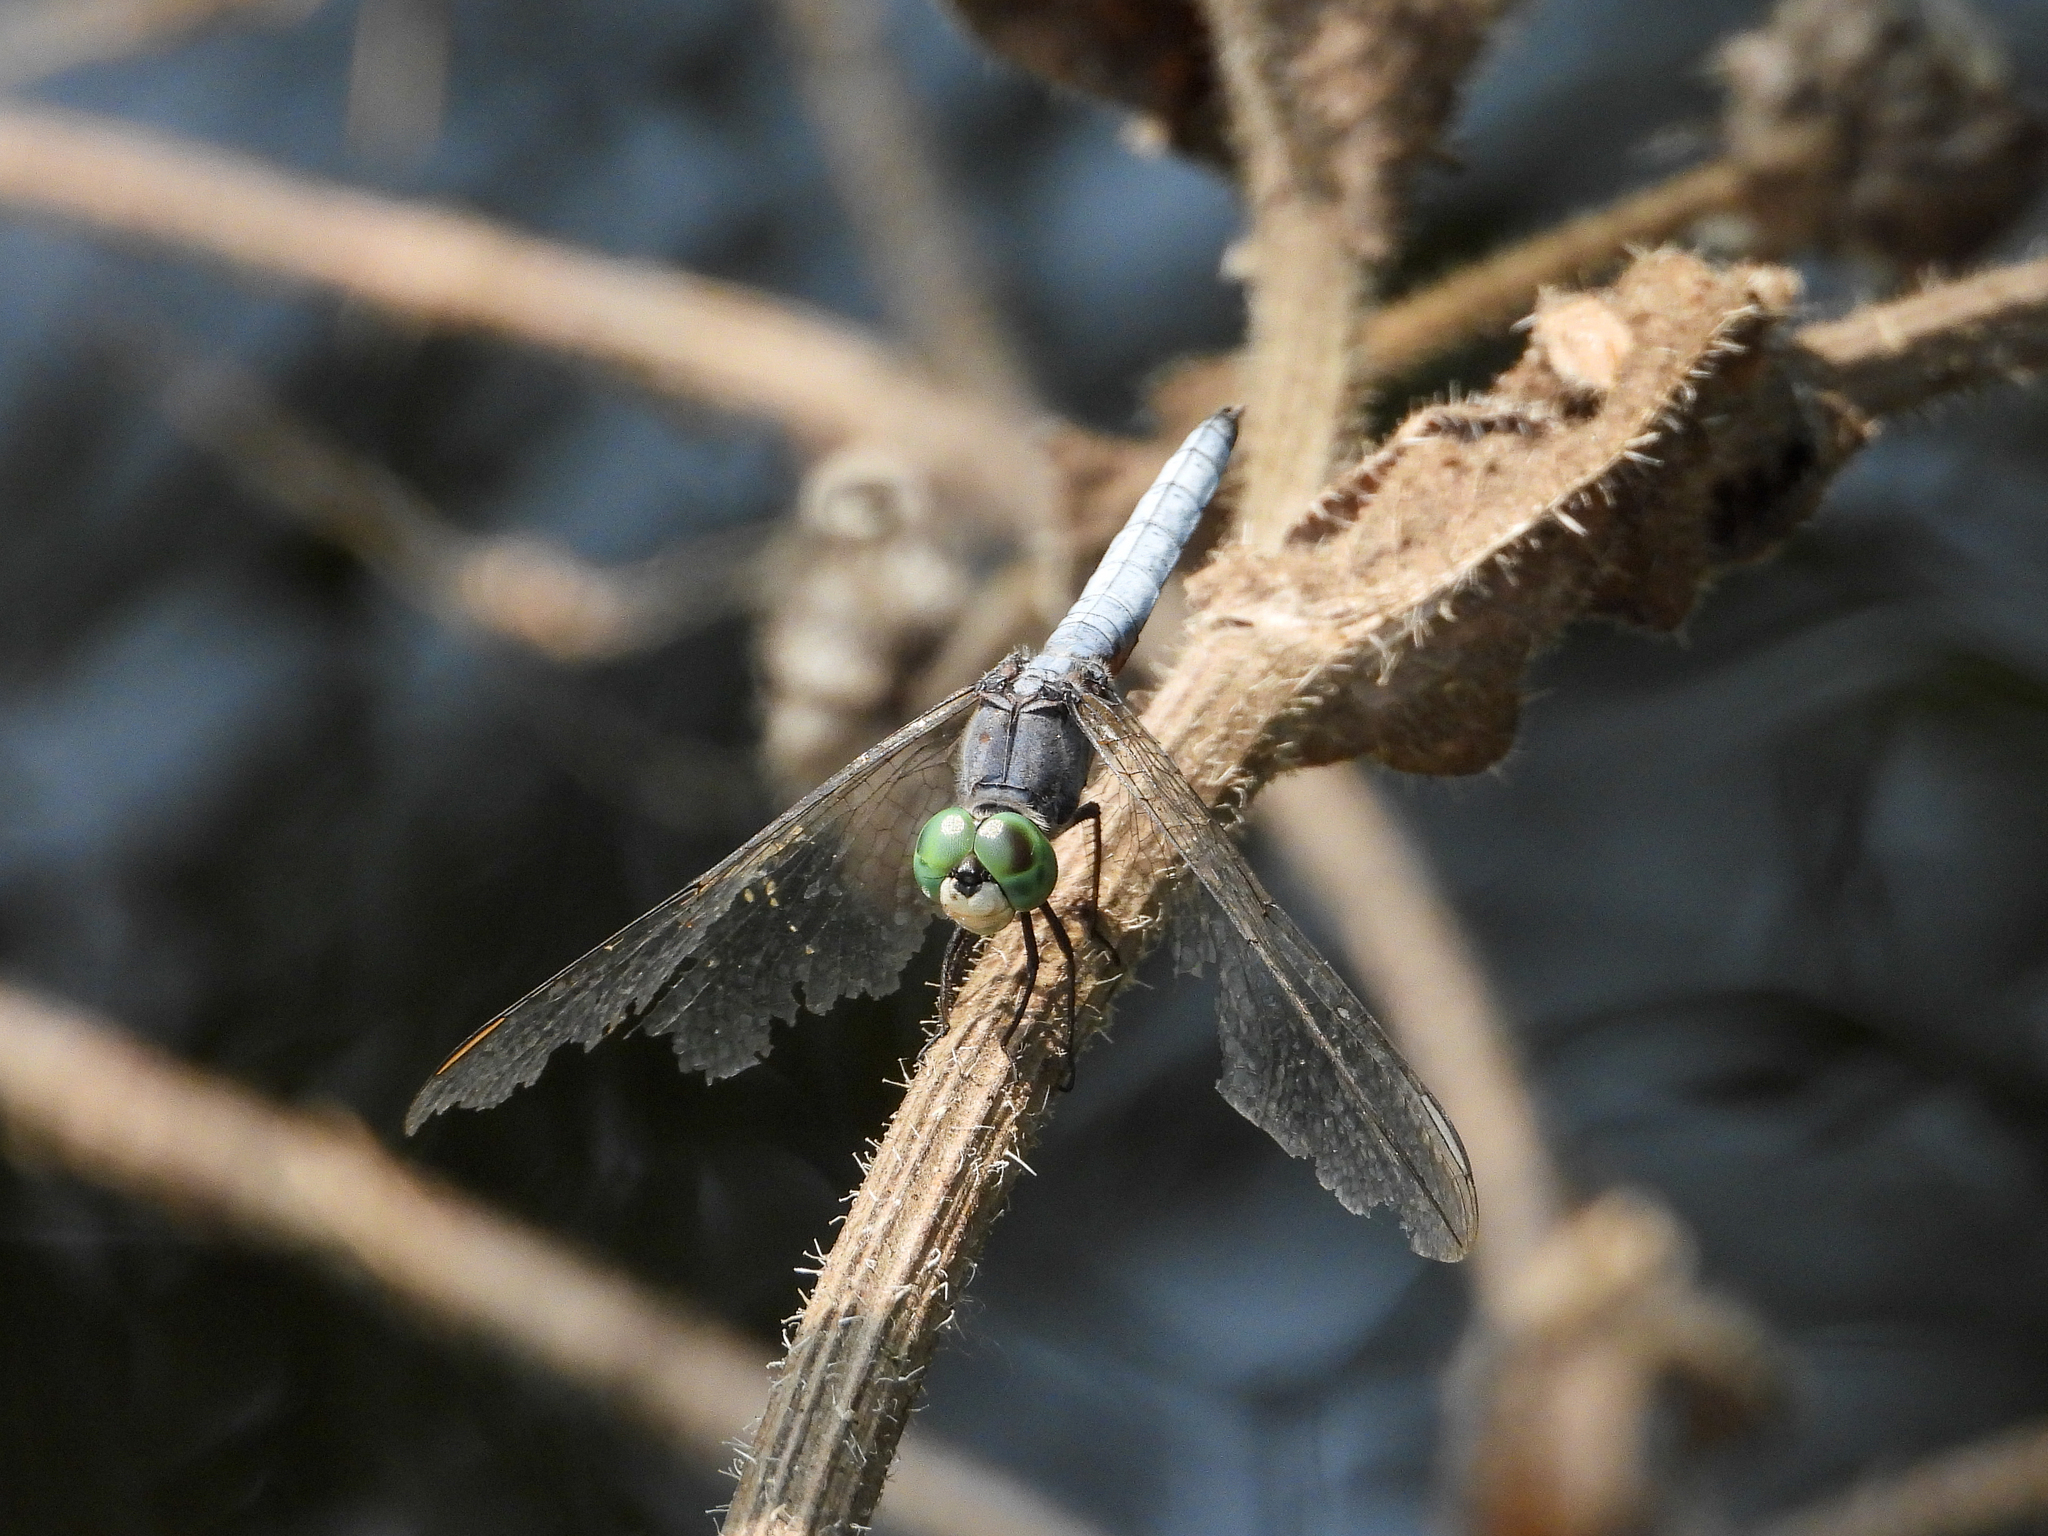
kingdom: Animalia
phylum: Arthropoda
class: Insecta
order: Odonata
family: Libellulidae
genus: Pachydiplax
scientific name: Pachydiplax longipennis
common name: Blue dasher
